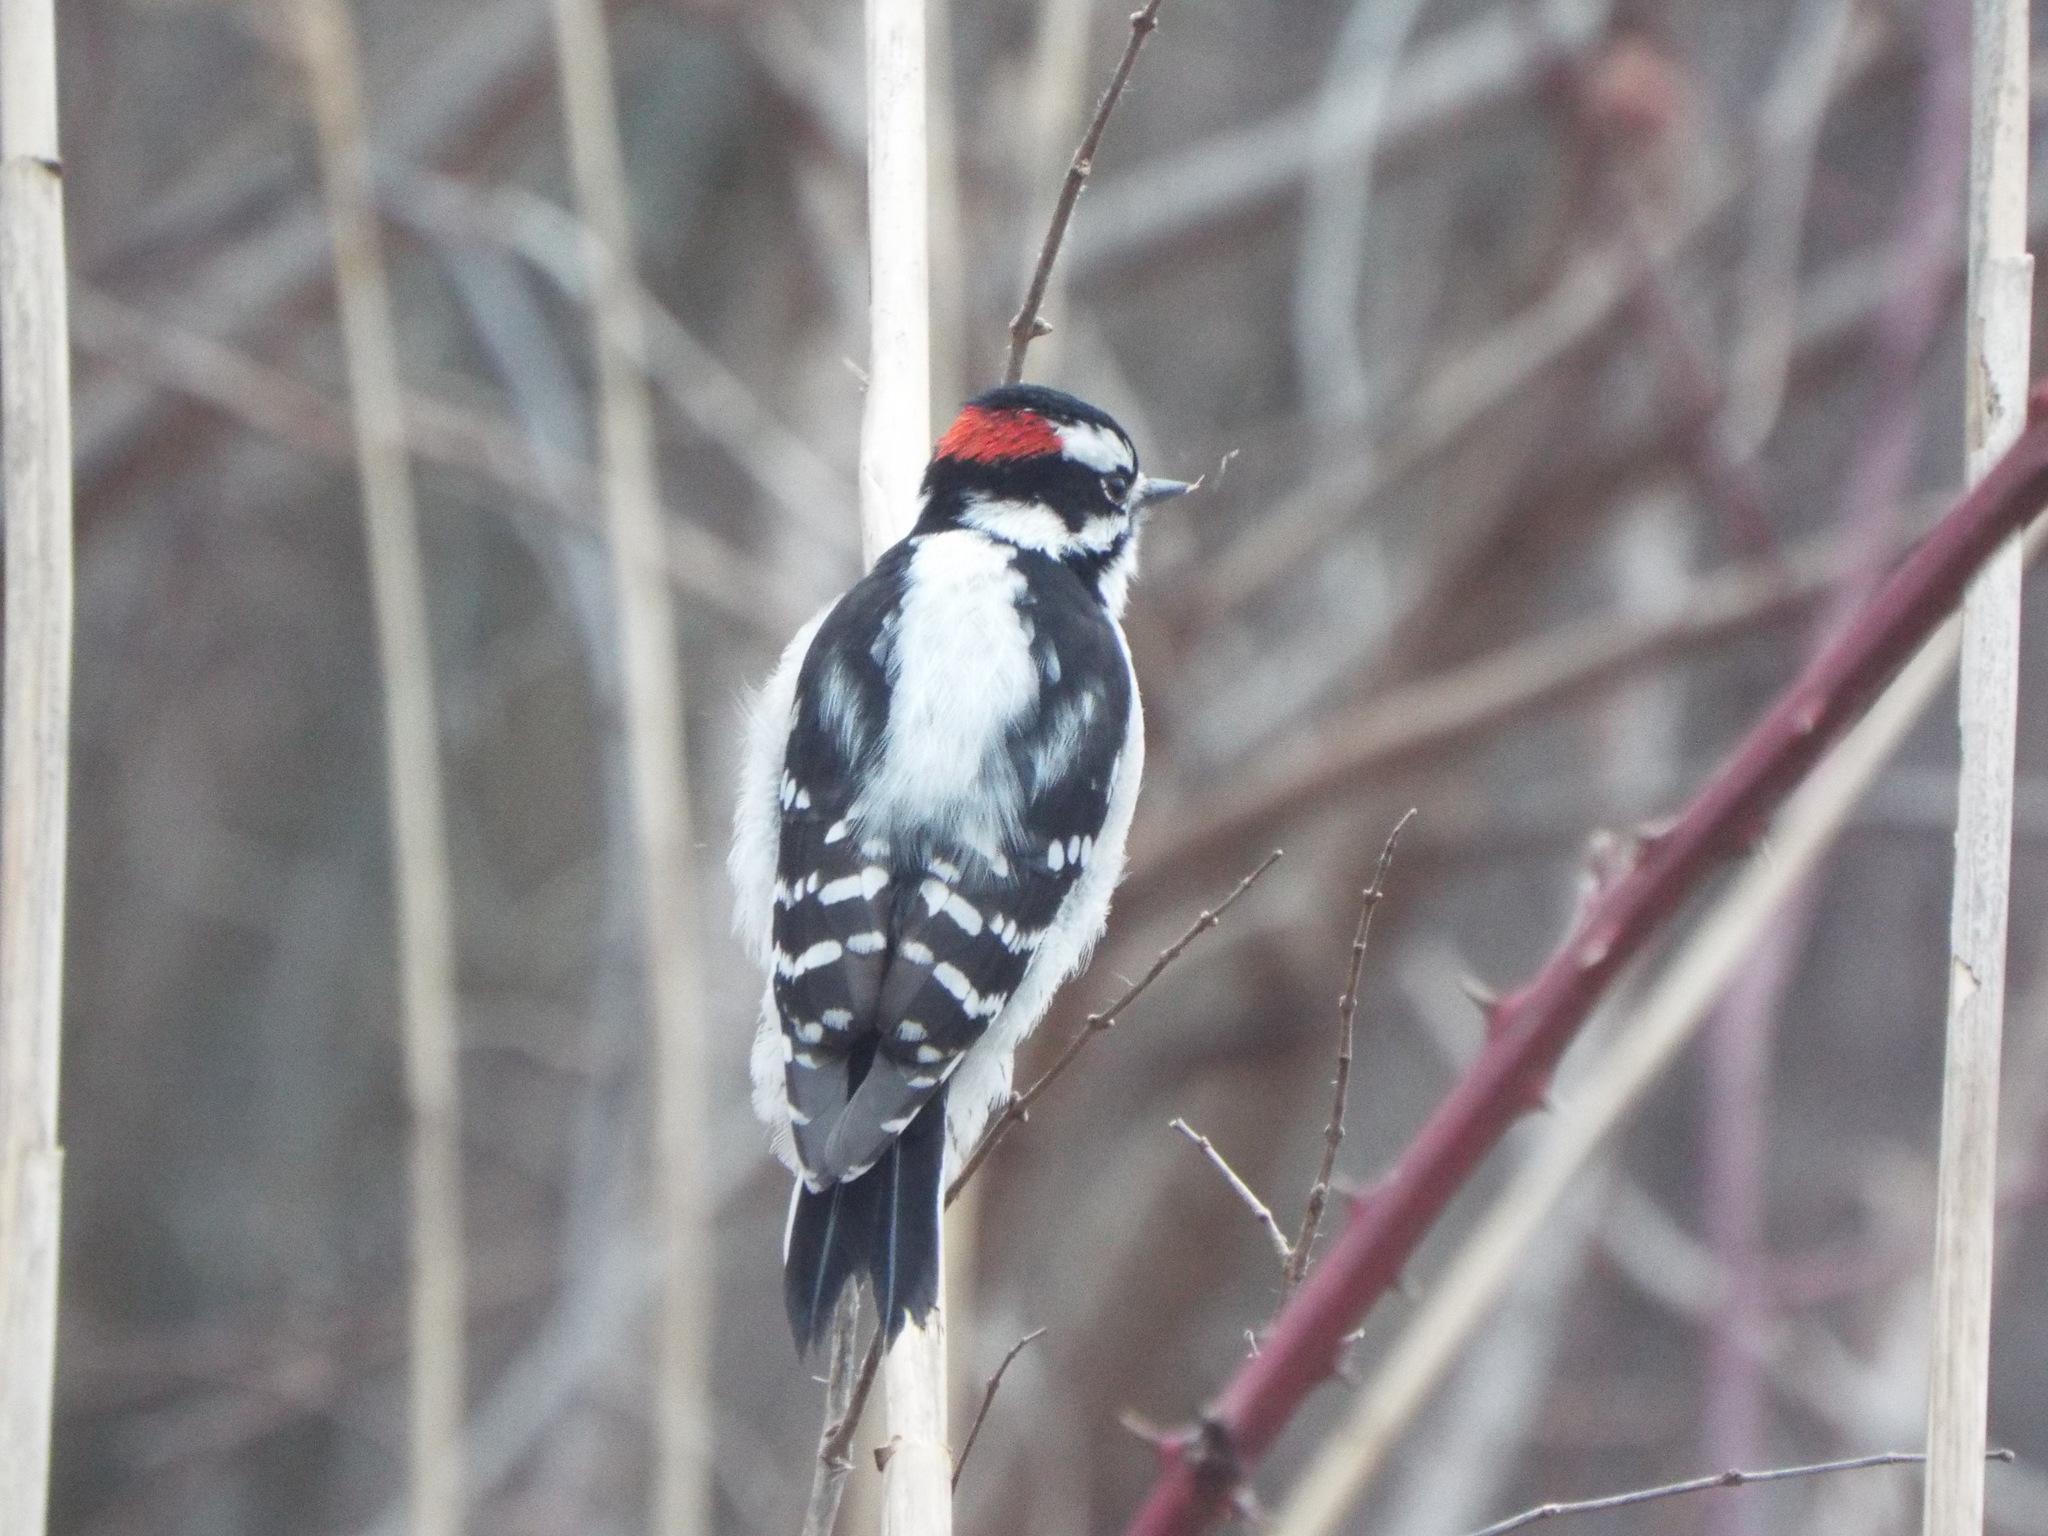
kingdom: Animalia
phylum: Chordata
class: Aves
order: Piciformes
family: Picidae
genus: Dryobates
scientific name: Dryobates pubescens
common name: Downy woodpecker
